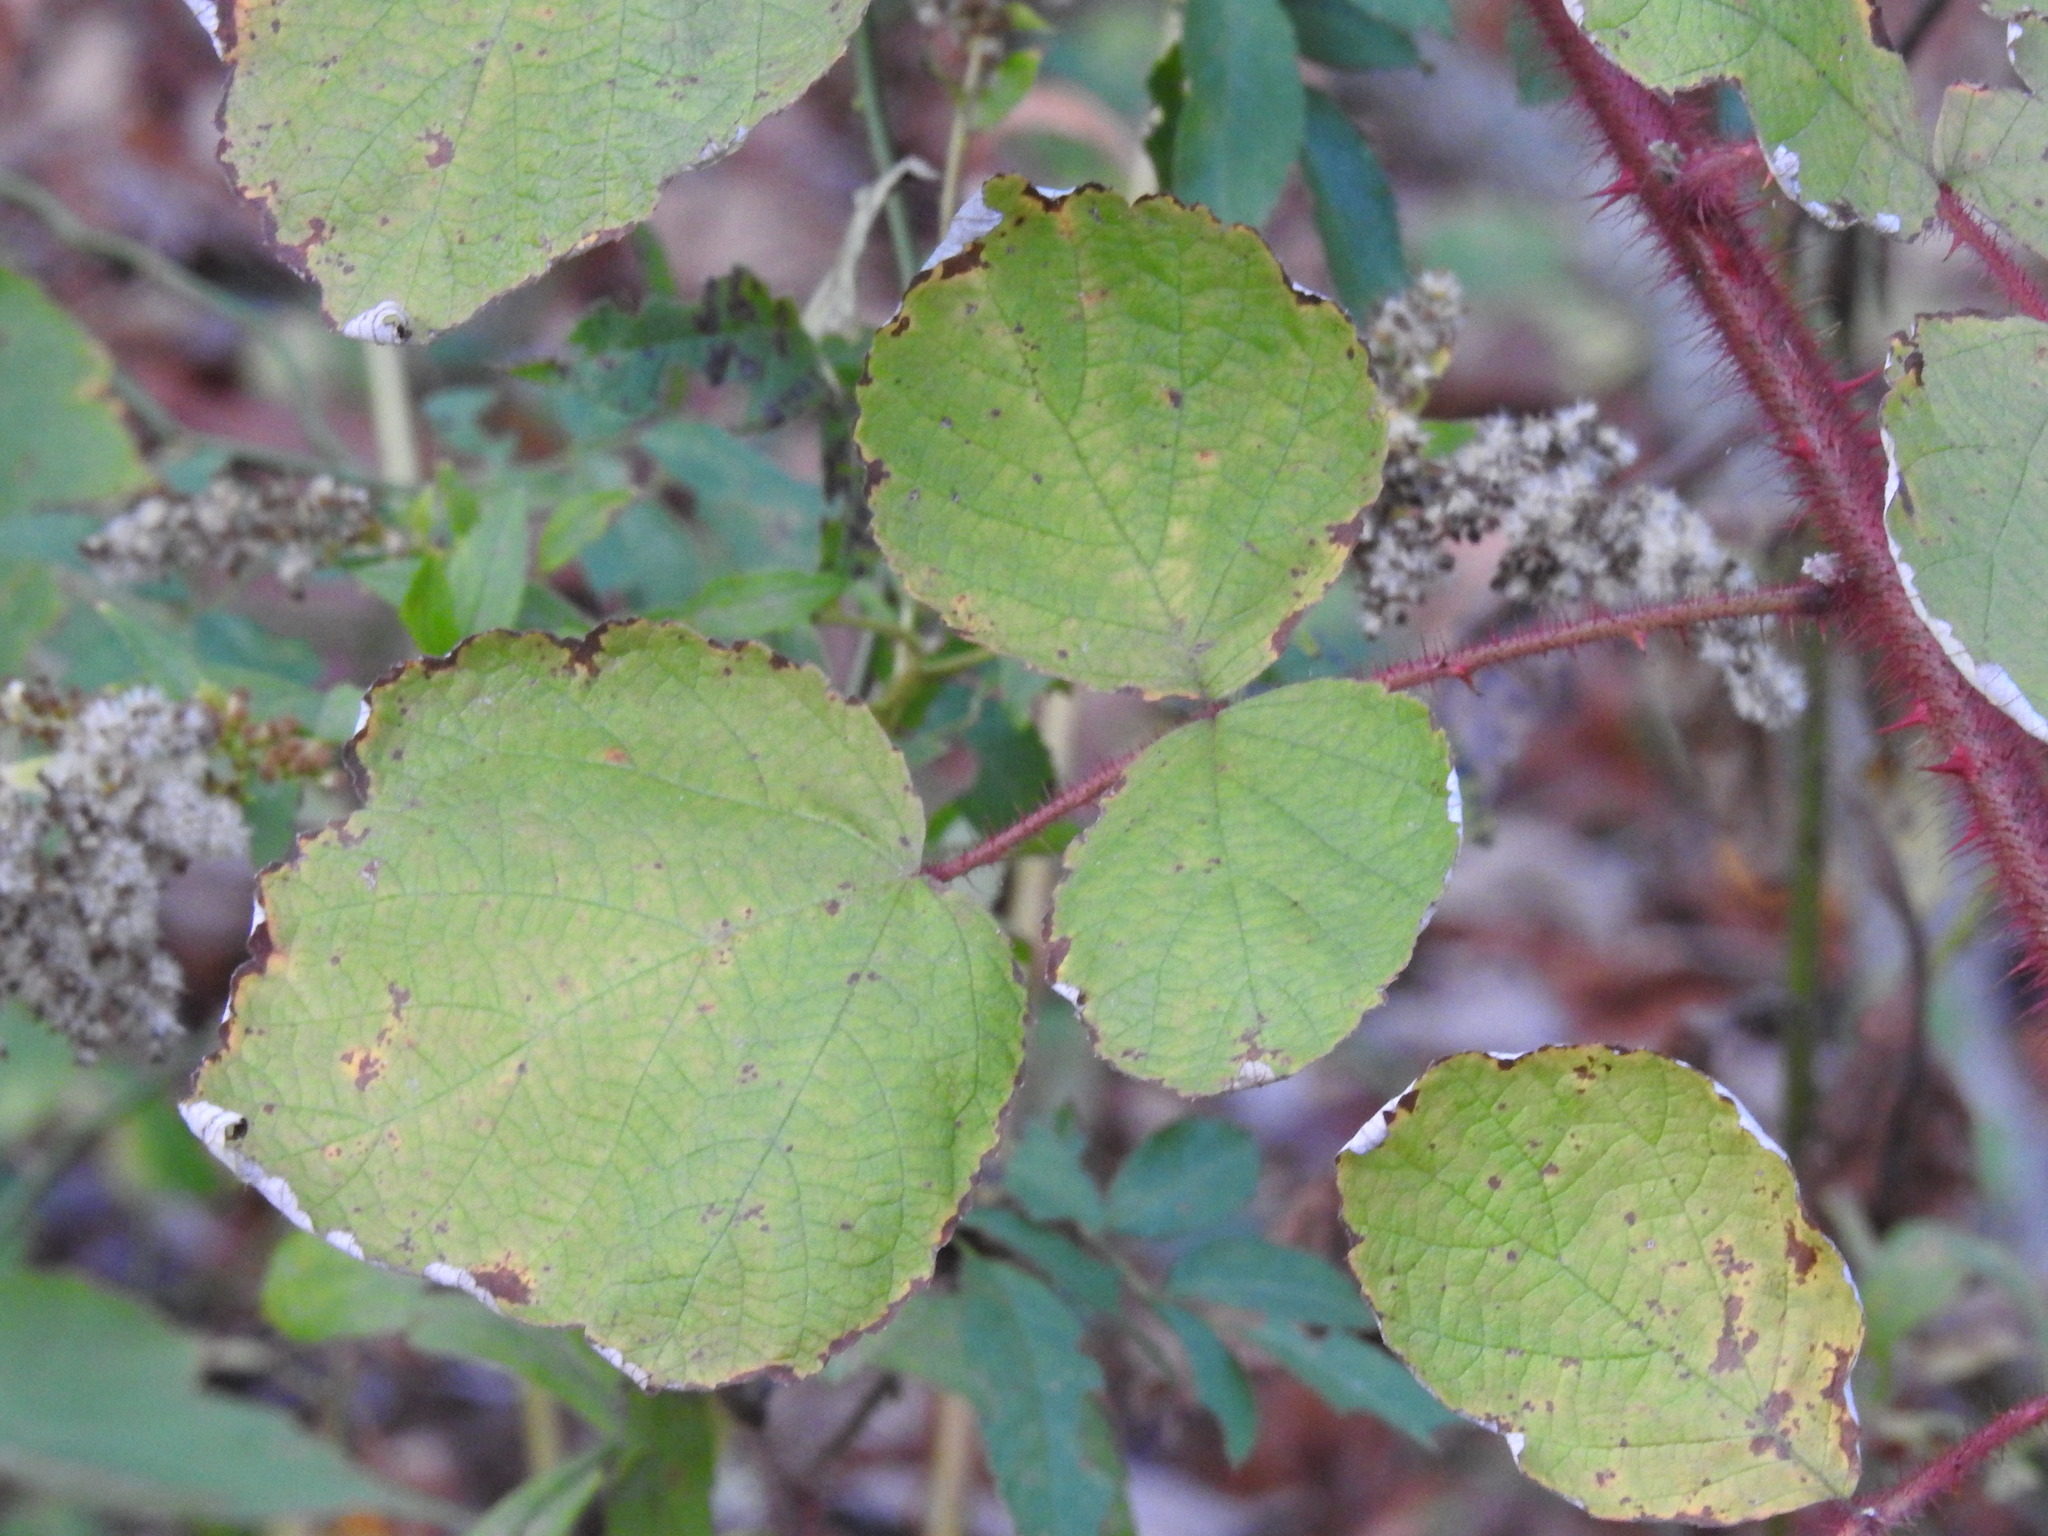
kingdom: Plantae
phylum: Tracheophyta
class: Magnoliopsida
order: Rosales
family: Rosaceae
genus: Rubus
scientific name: Rubus phoenicolasius
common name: Japanese wineberry
